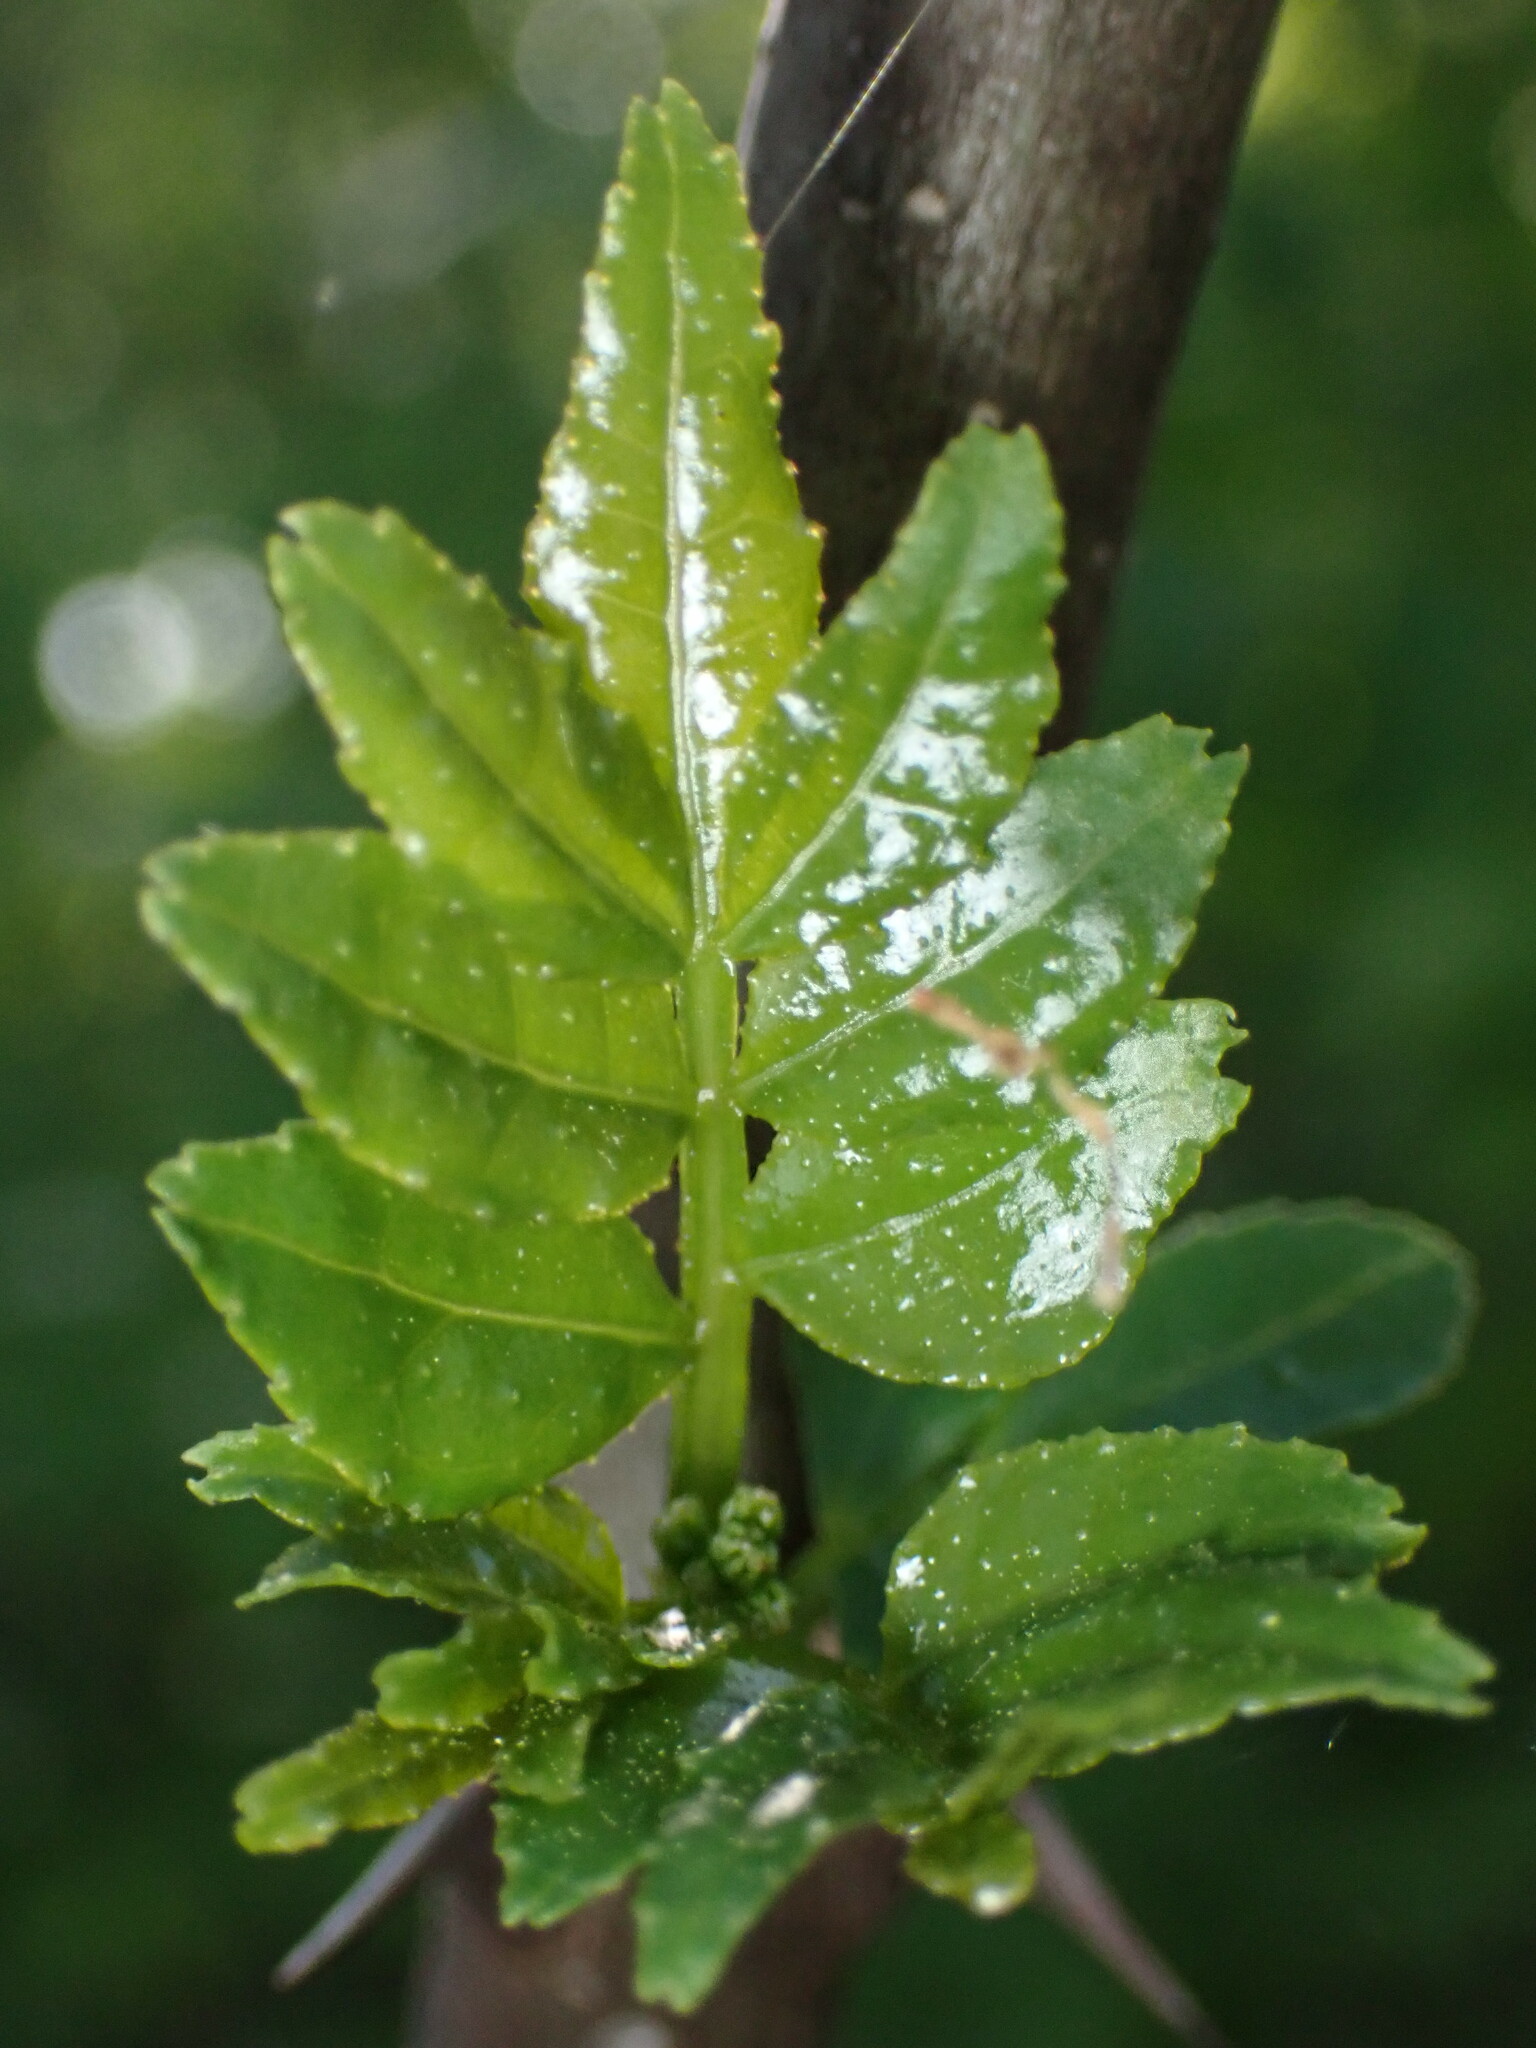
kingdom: Plantae
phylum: Tracheophyta
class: Magnoliopsida
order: Sapindales
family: Rutaceae
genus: Zanthoxylum
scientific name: Zanthoxylum simulans
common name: Chinese-pepper
